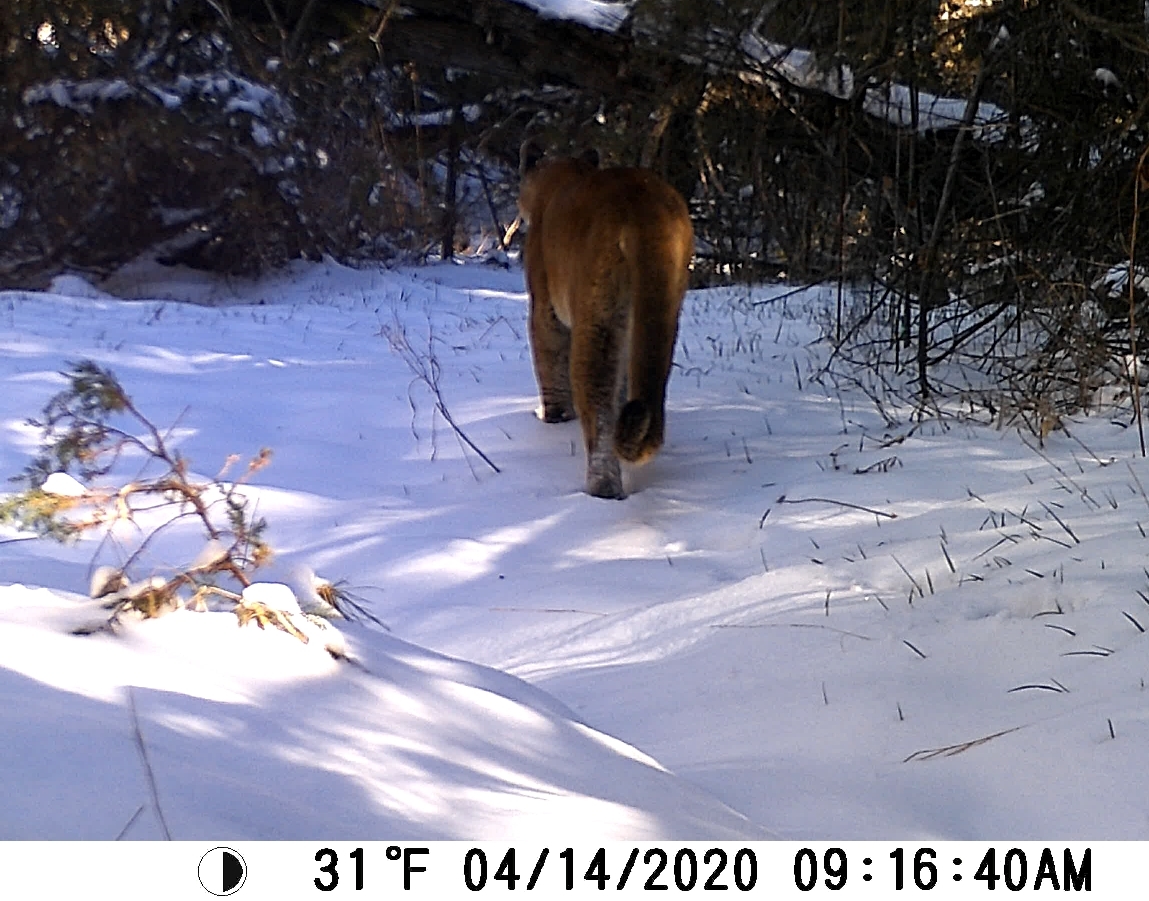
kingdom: Animalia
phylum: Chordata
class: Mammalia
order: Carnivora
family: Felidae
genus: Puma
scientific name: Puma concolor
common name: Puma
